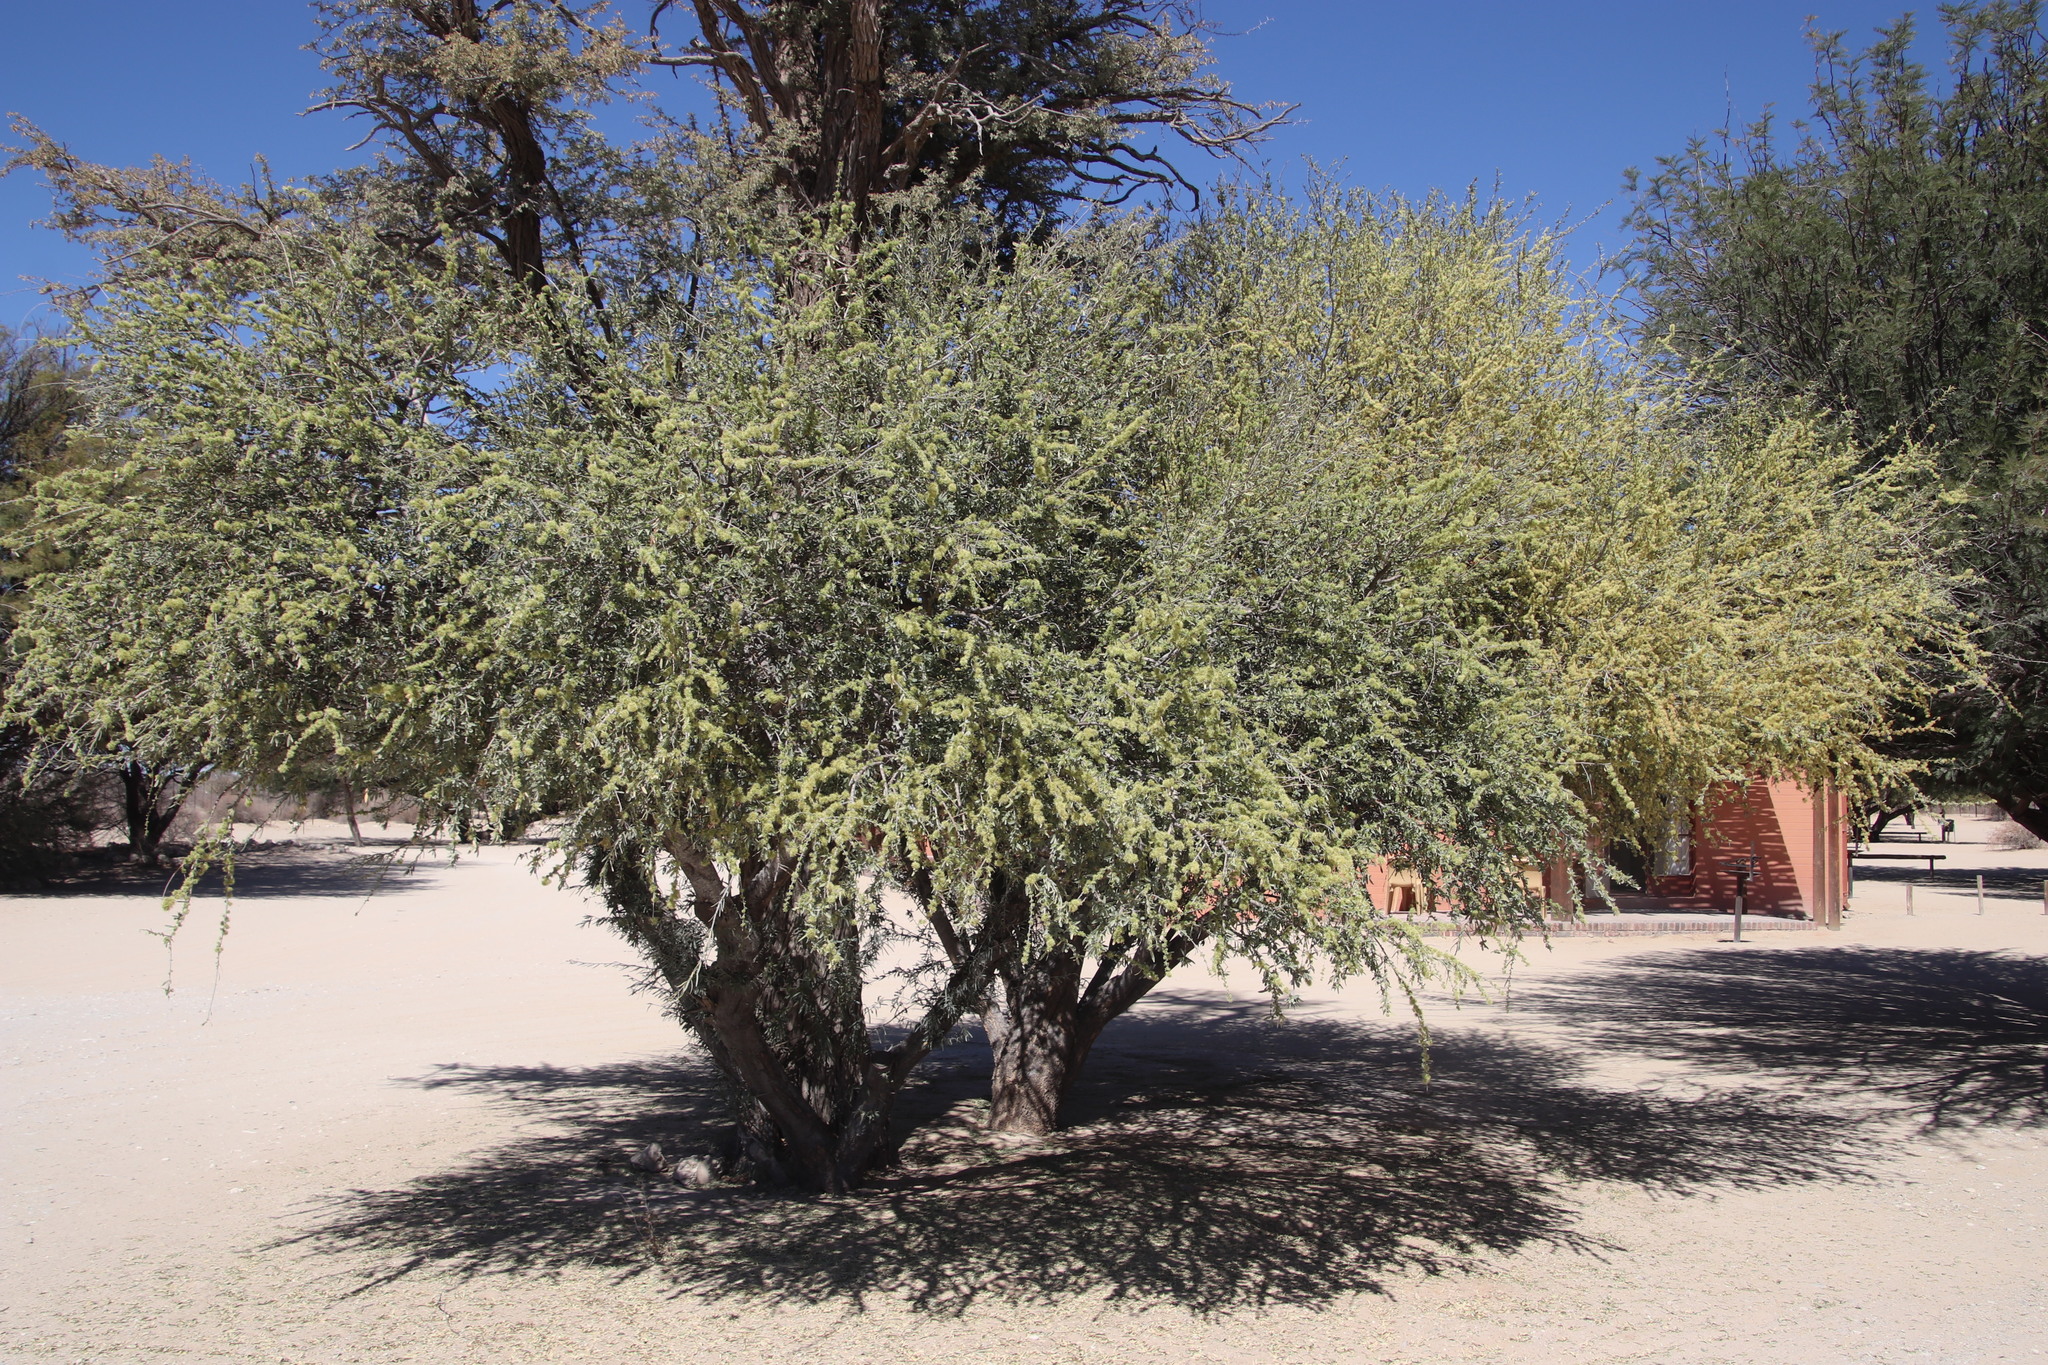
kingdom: Plantae
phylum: Tracheophyta
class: Magnoliopsida
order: Brassicales
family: Capparaceae
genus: Boscia
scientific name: Boscia albitrunca
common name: Caper bush
